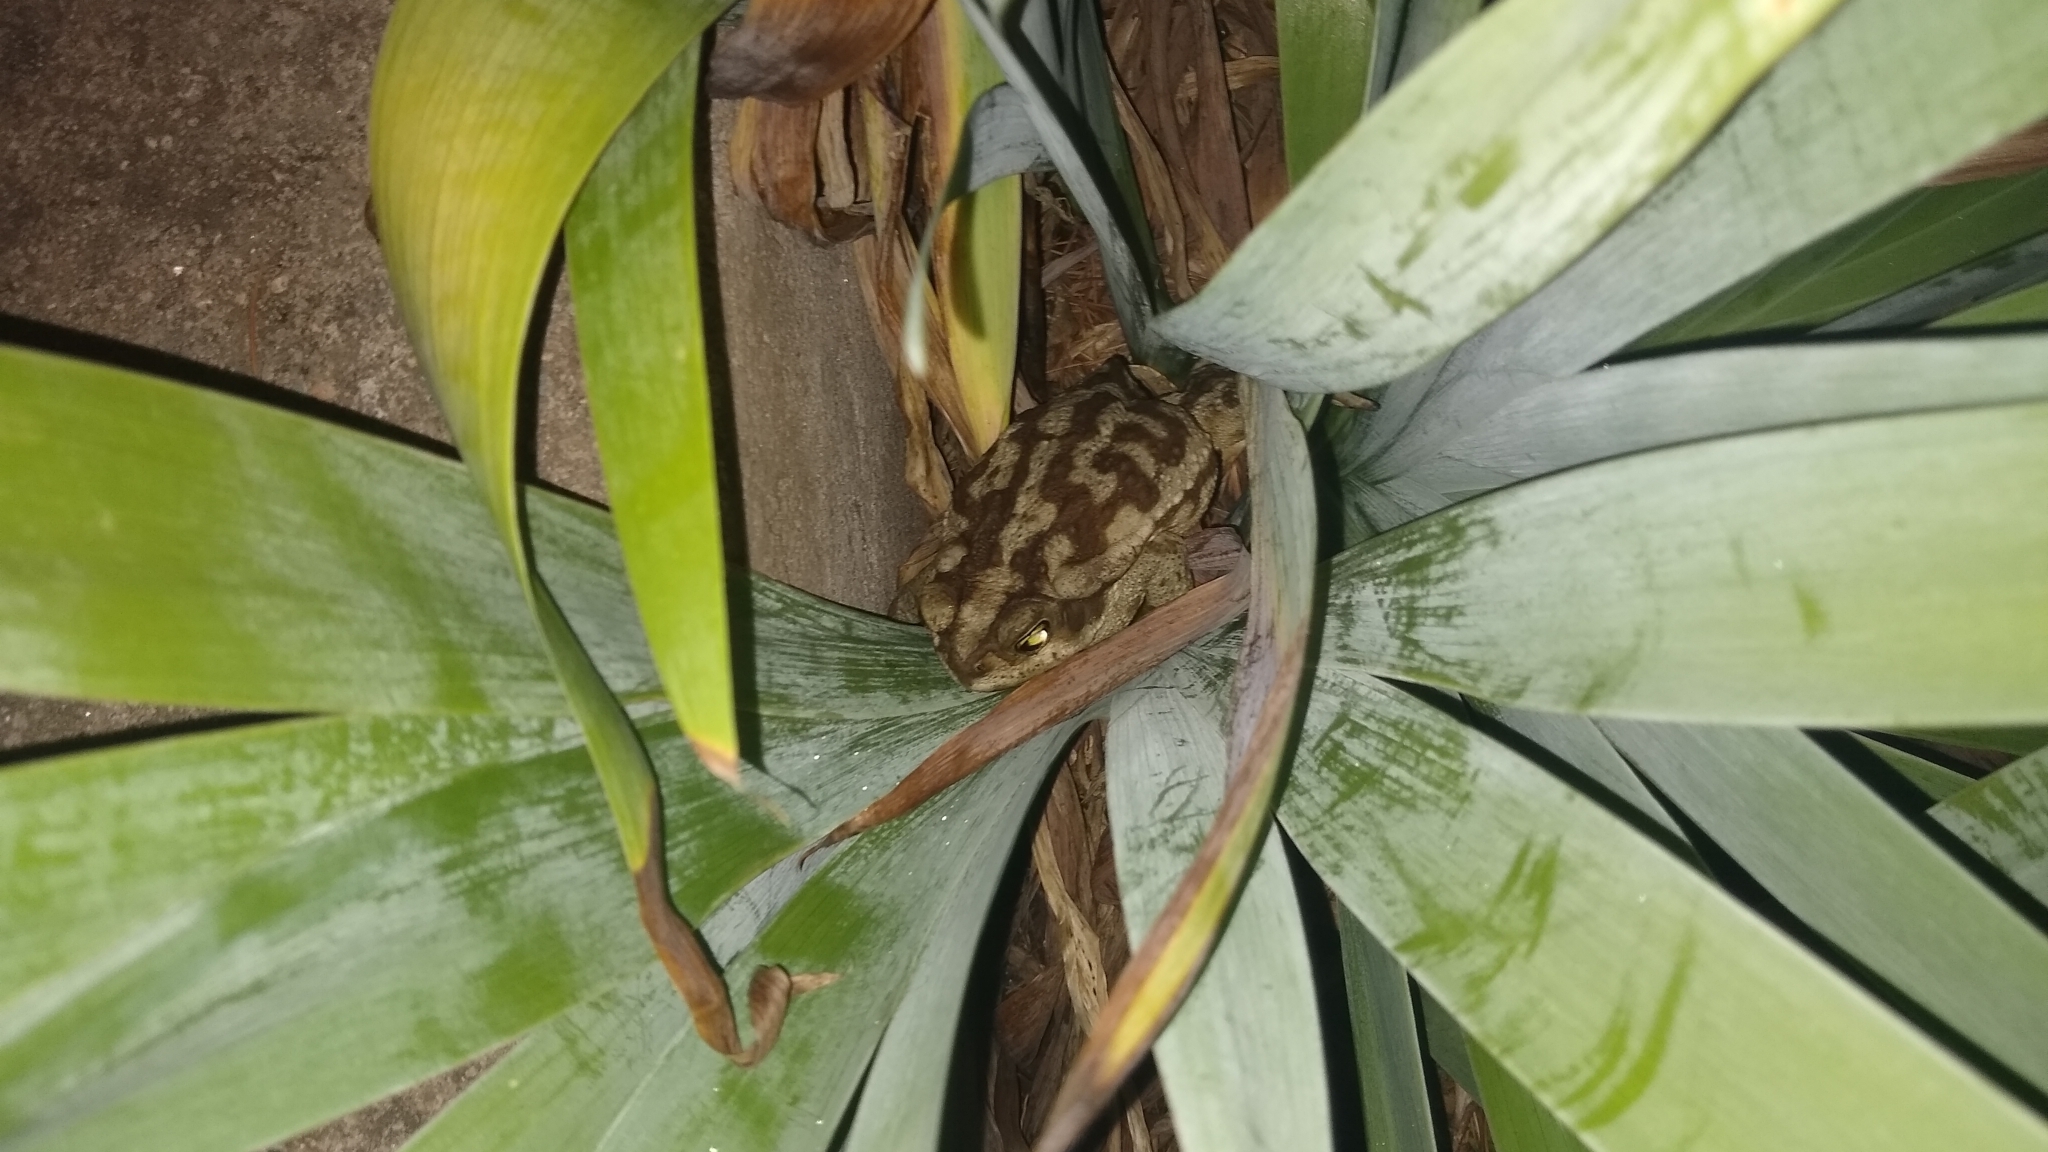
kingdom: Animalia
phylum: Chordata
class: Amphibia
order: Anura
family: Bufonidae
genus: Rhinella
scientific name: Rhinella arenarum
